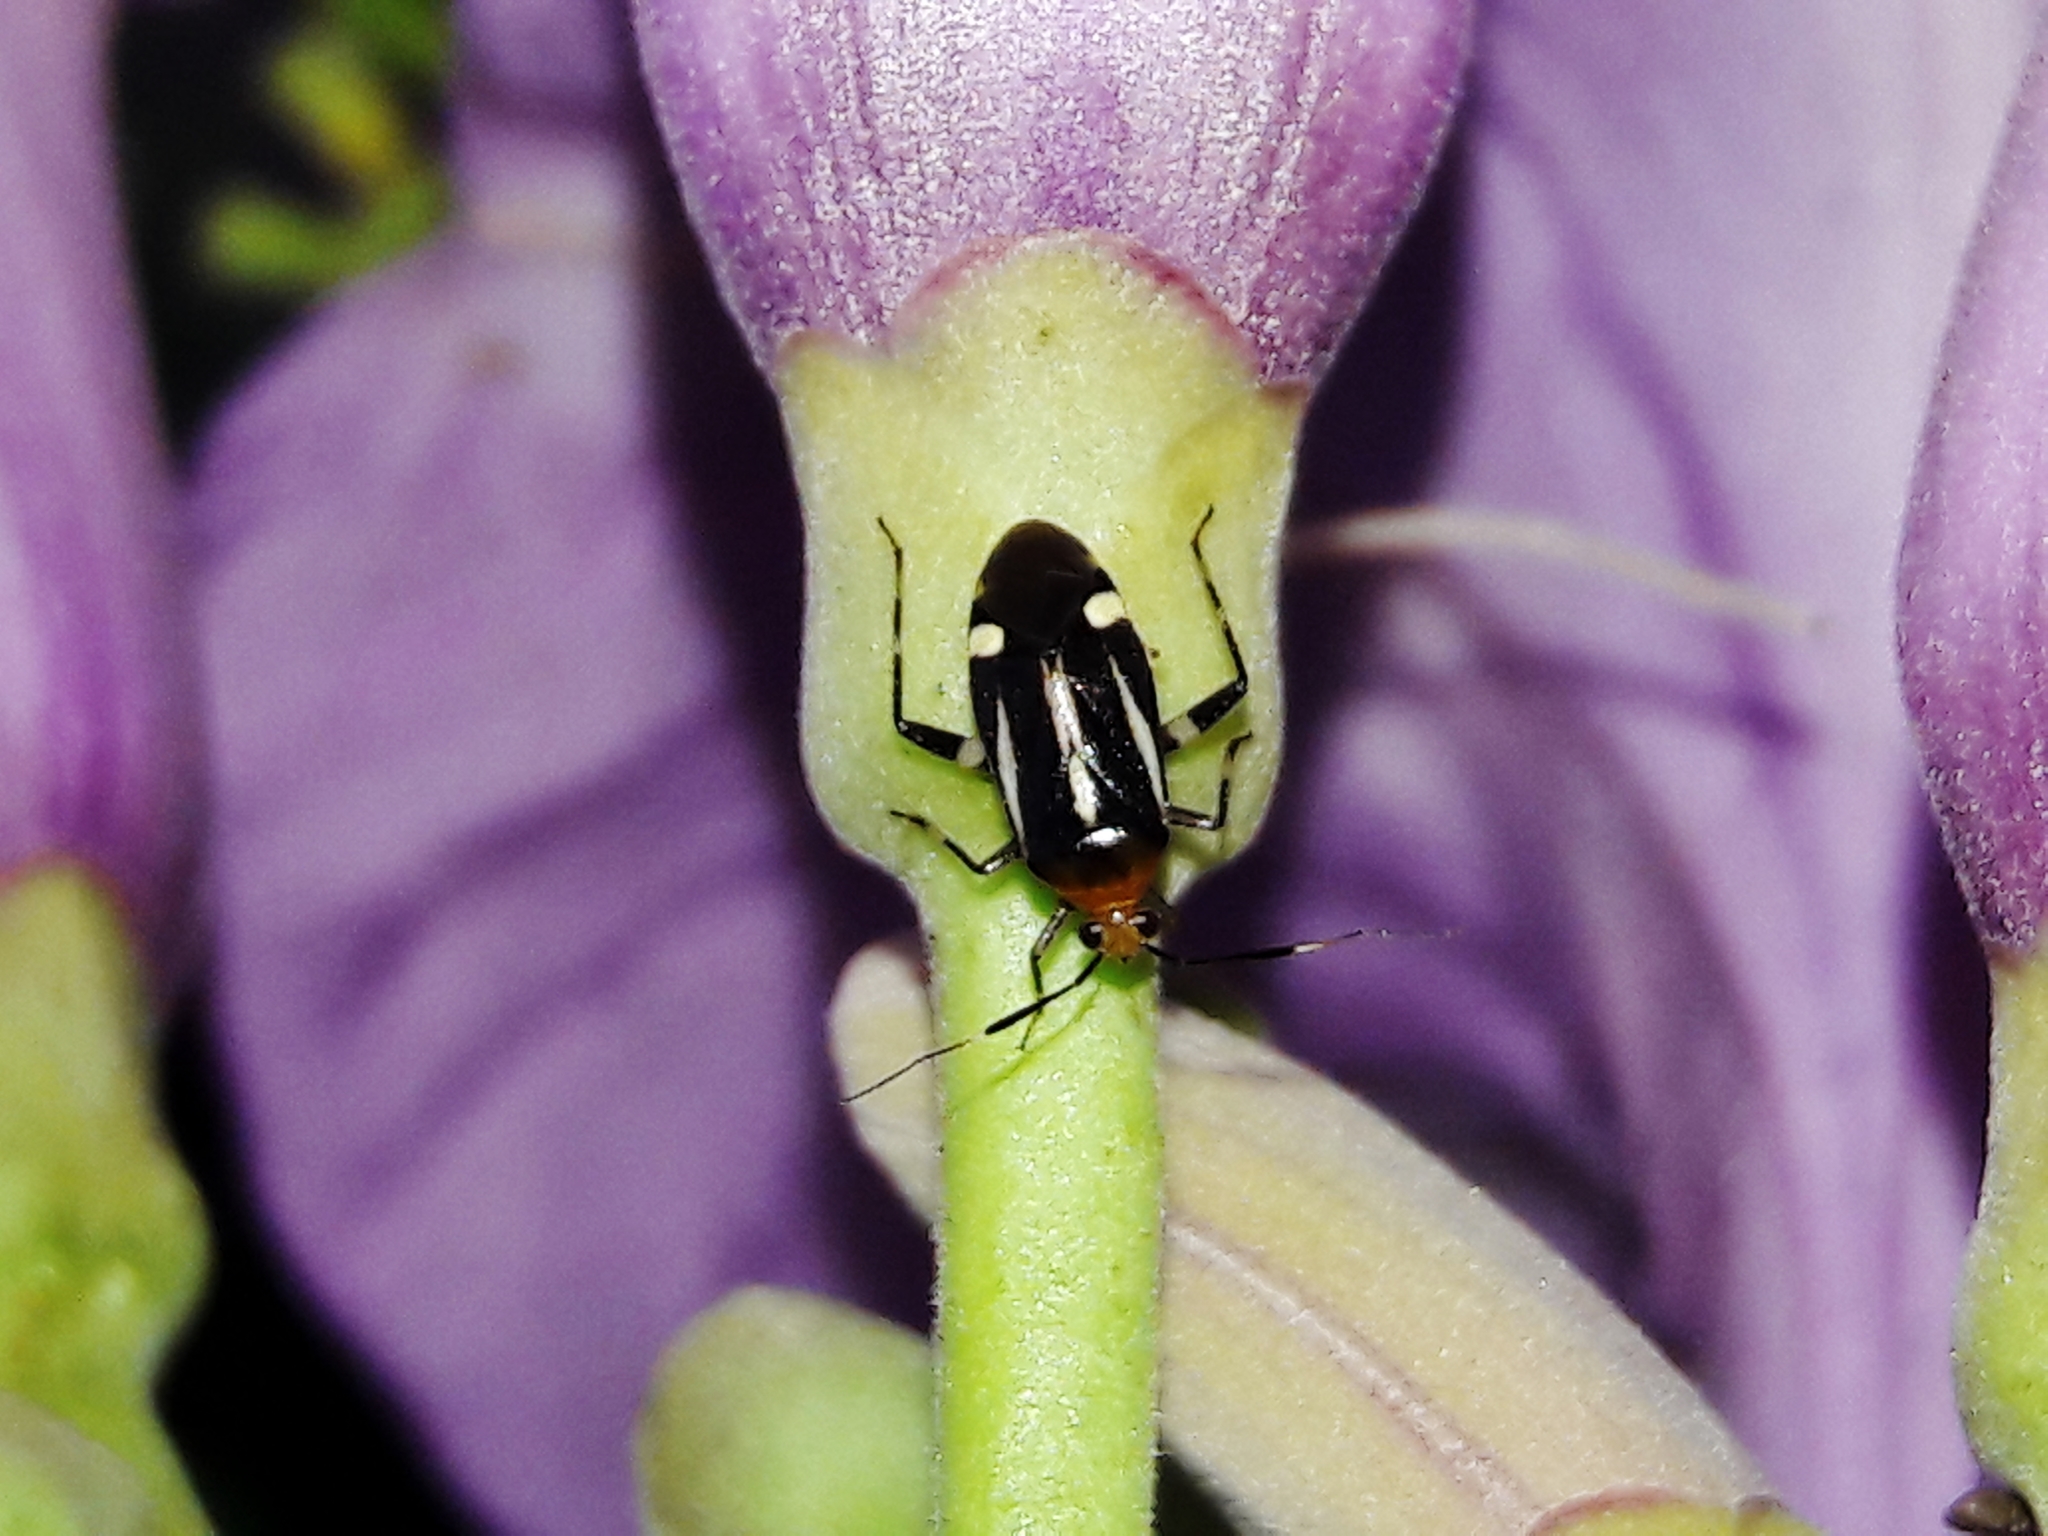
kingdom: Animalia
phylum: Arthropoda
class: Insecta
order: Hemiptera
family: Miridae
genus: Horciasinus
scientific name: Horciasinus signoreti
